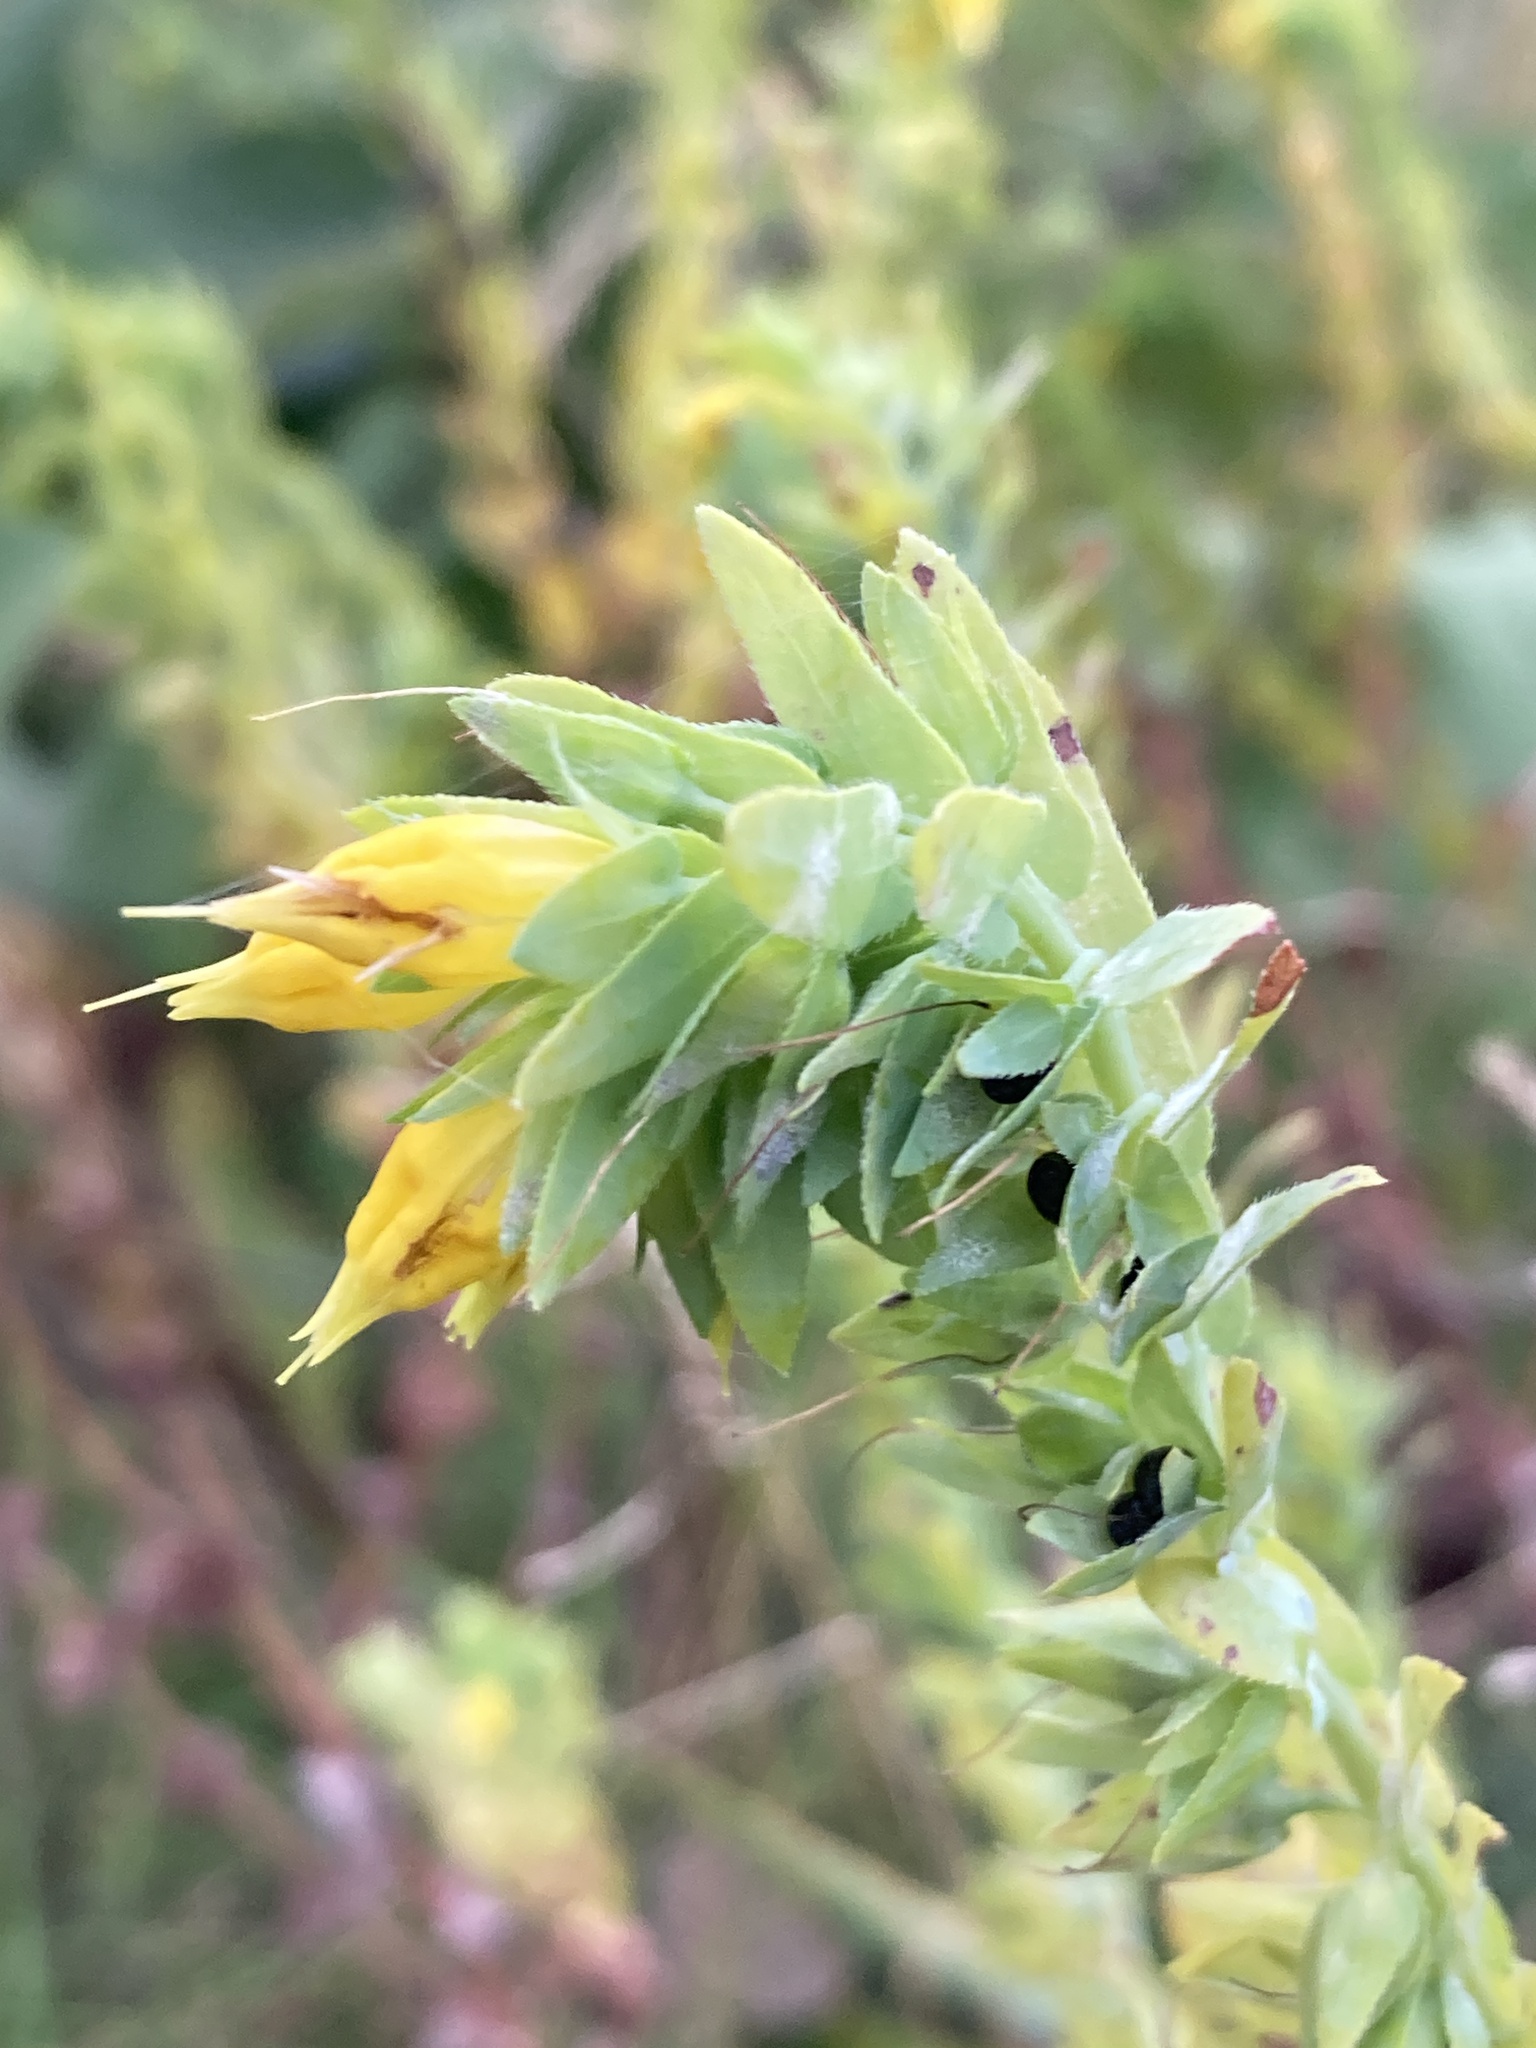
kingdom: Plantae
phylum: Tracheophyta
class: Magnoliopsida
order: Boraginales
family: Boraginaceae
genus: Cerinthe
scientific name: Cerinthe minor
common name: Lesser honeywort
